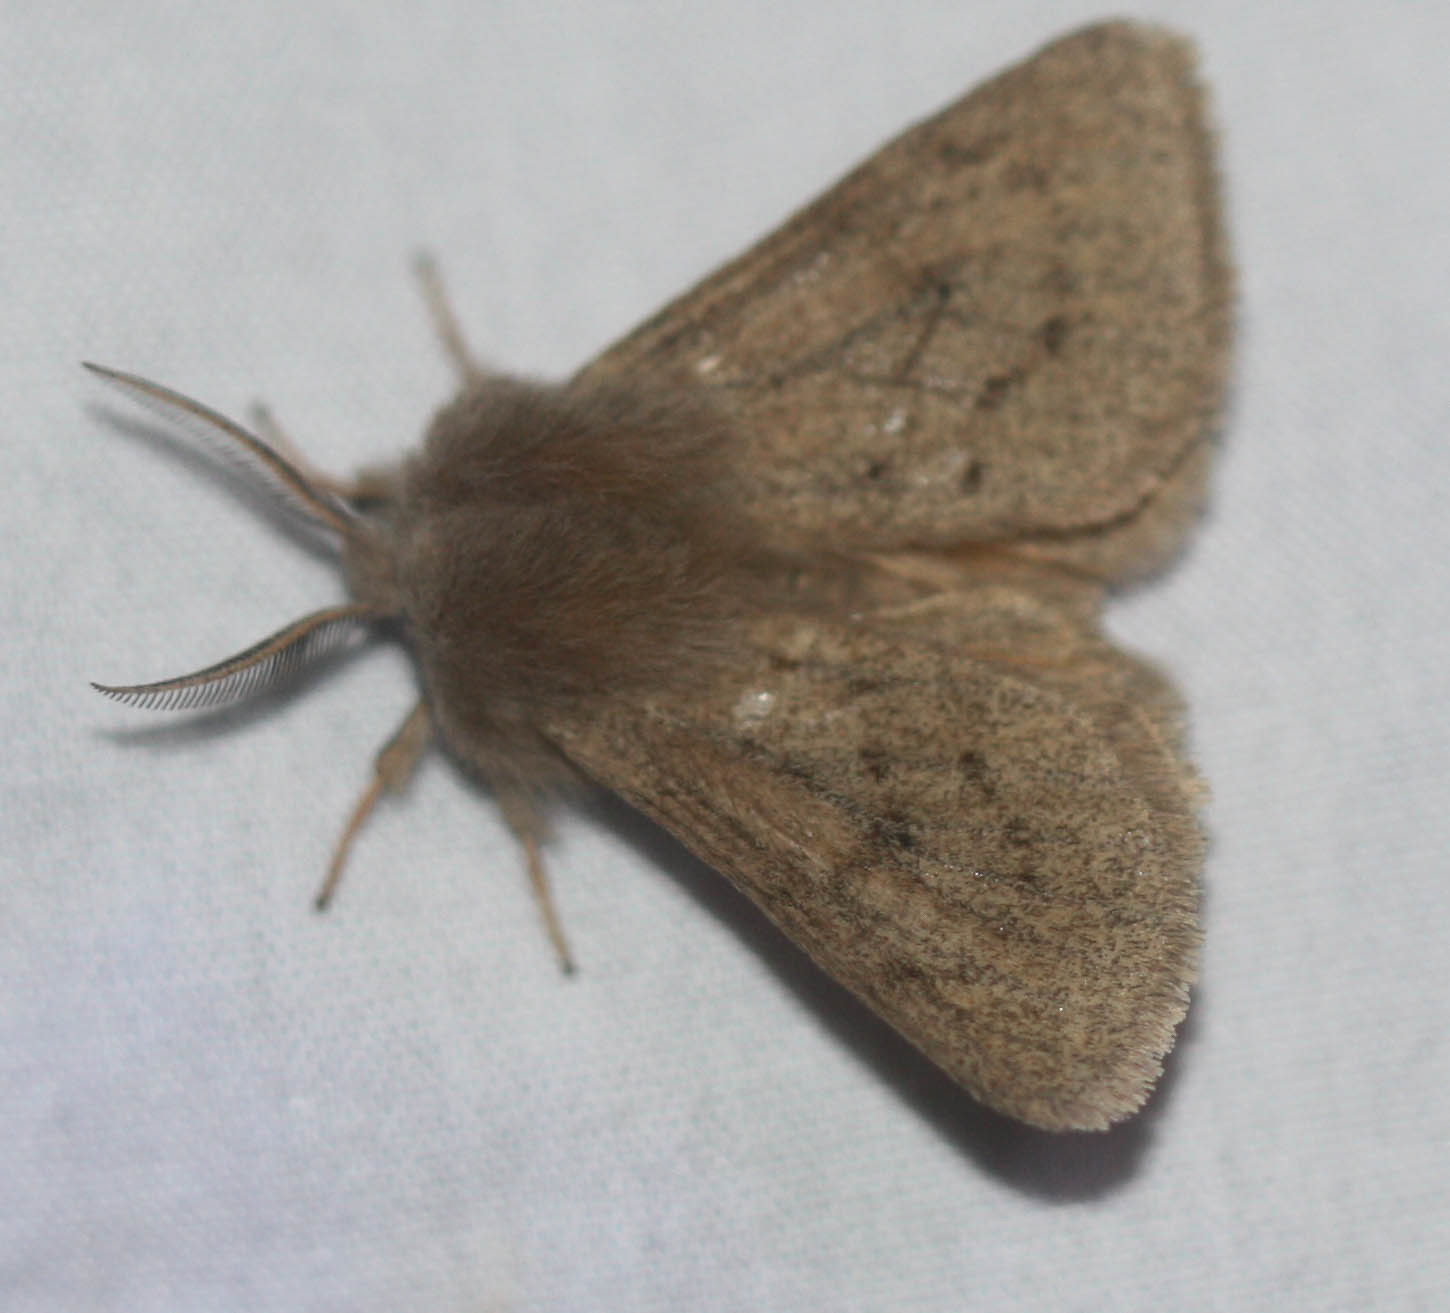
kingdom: Animalia
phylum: Arthropoda
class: Insecta
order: Lepidoptera
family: Erebidae
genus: Spilosoma
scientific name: Spilosoma vagans
